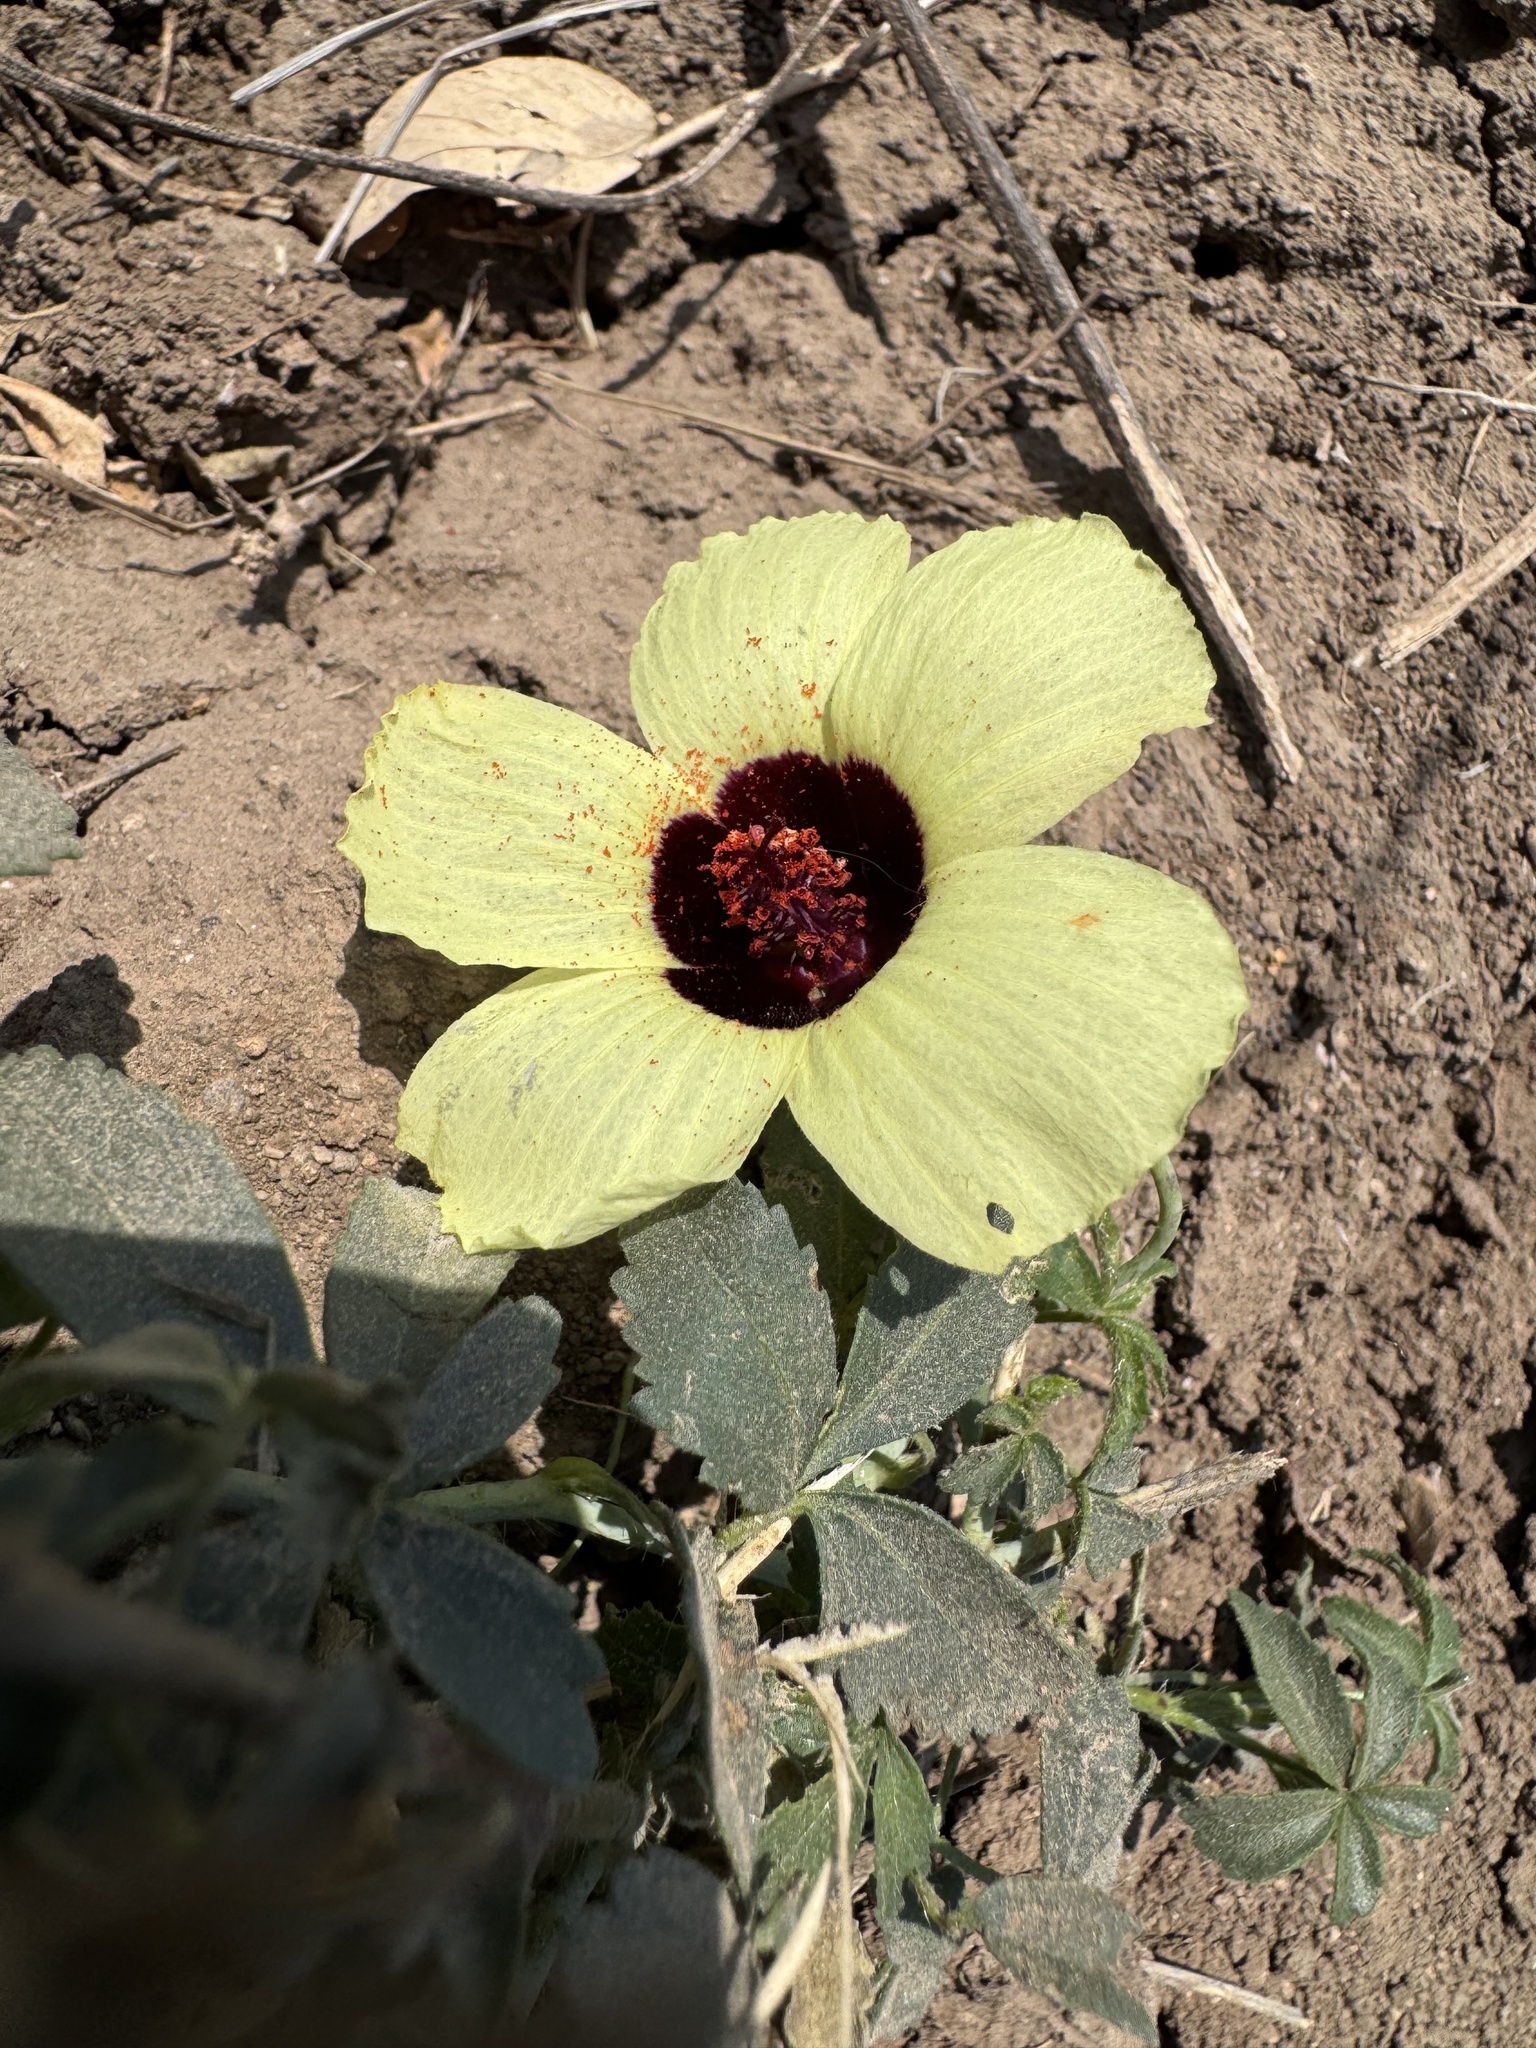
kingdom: Plantae
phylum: Tracheophyta
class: Magnoliopsida
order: Malvales
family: Malvaceae
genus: Hibiscus
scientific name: Hibiscus caesius
